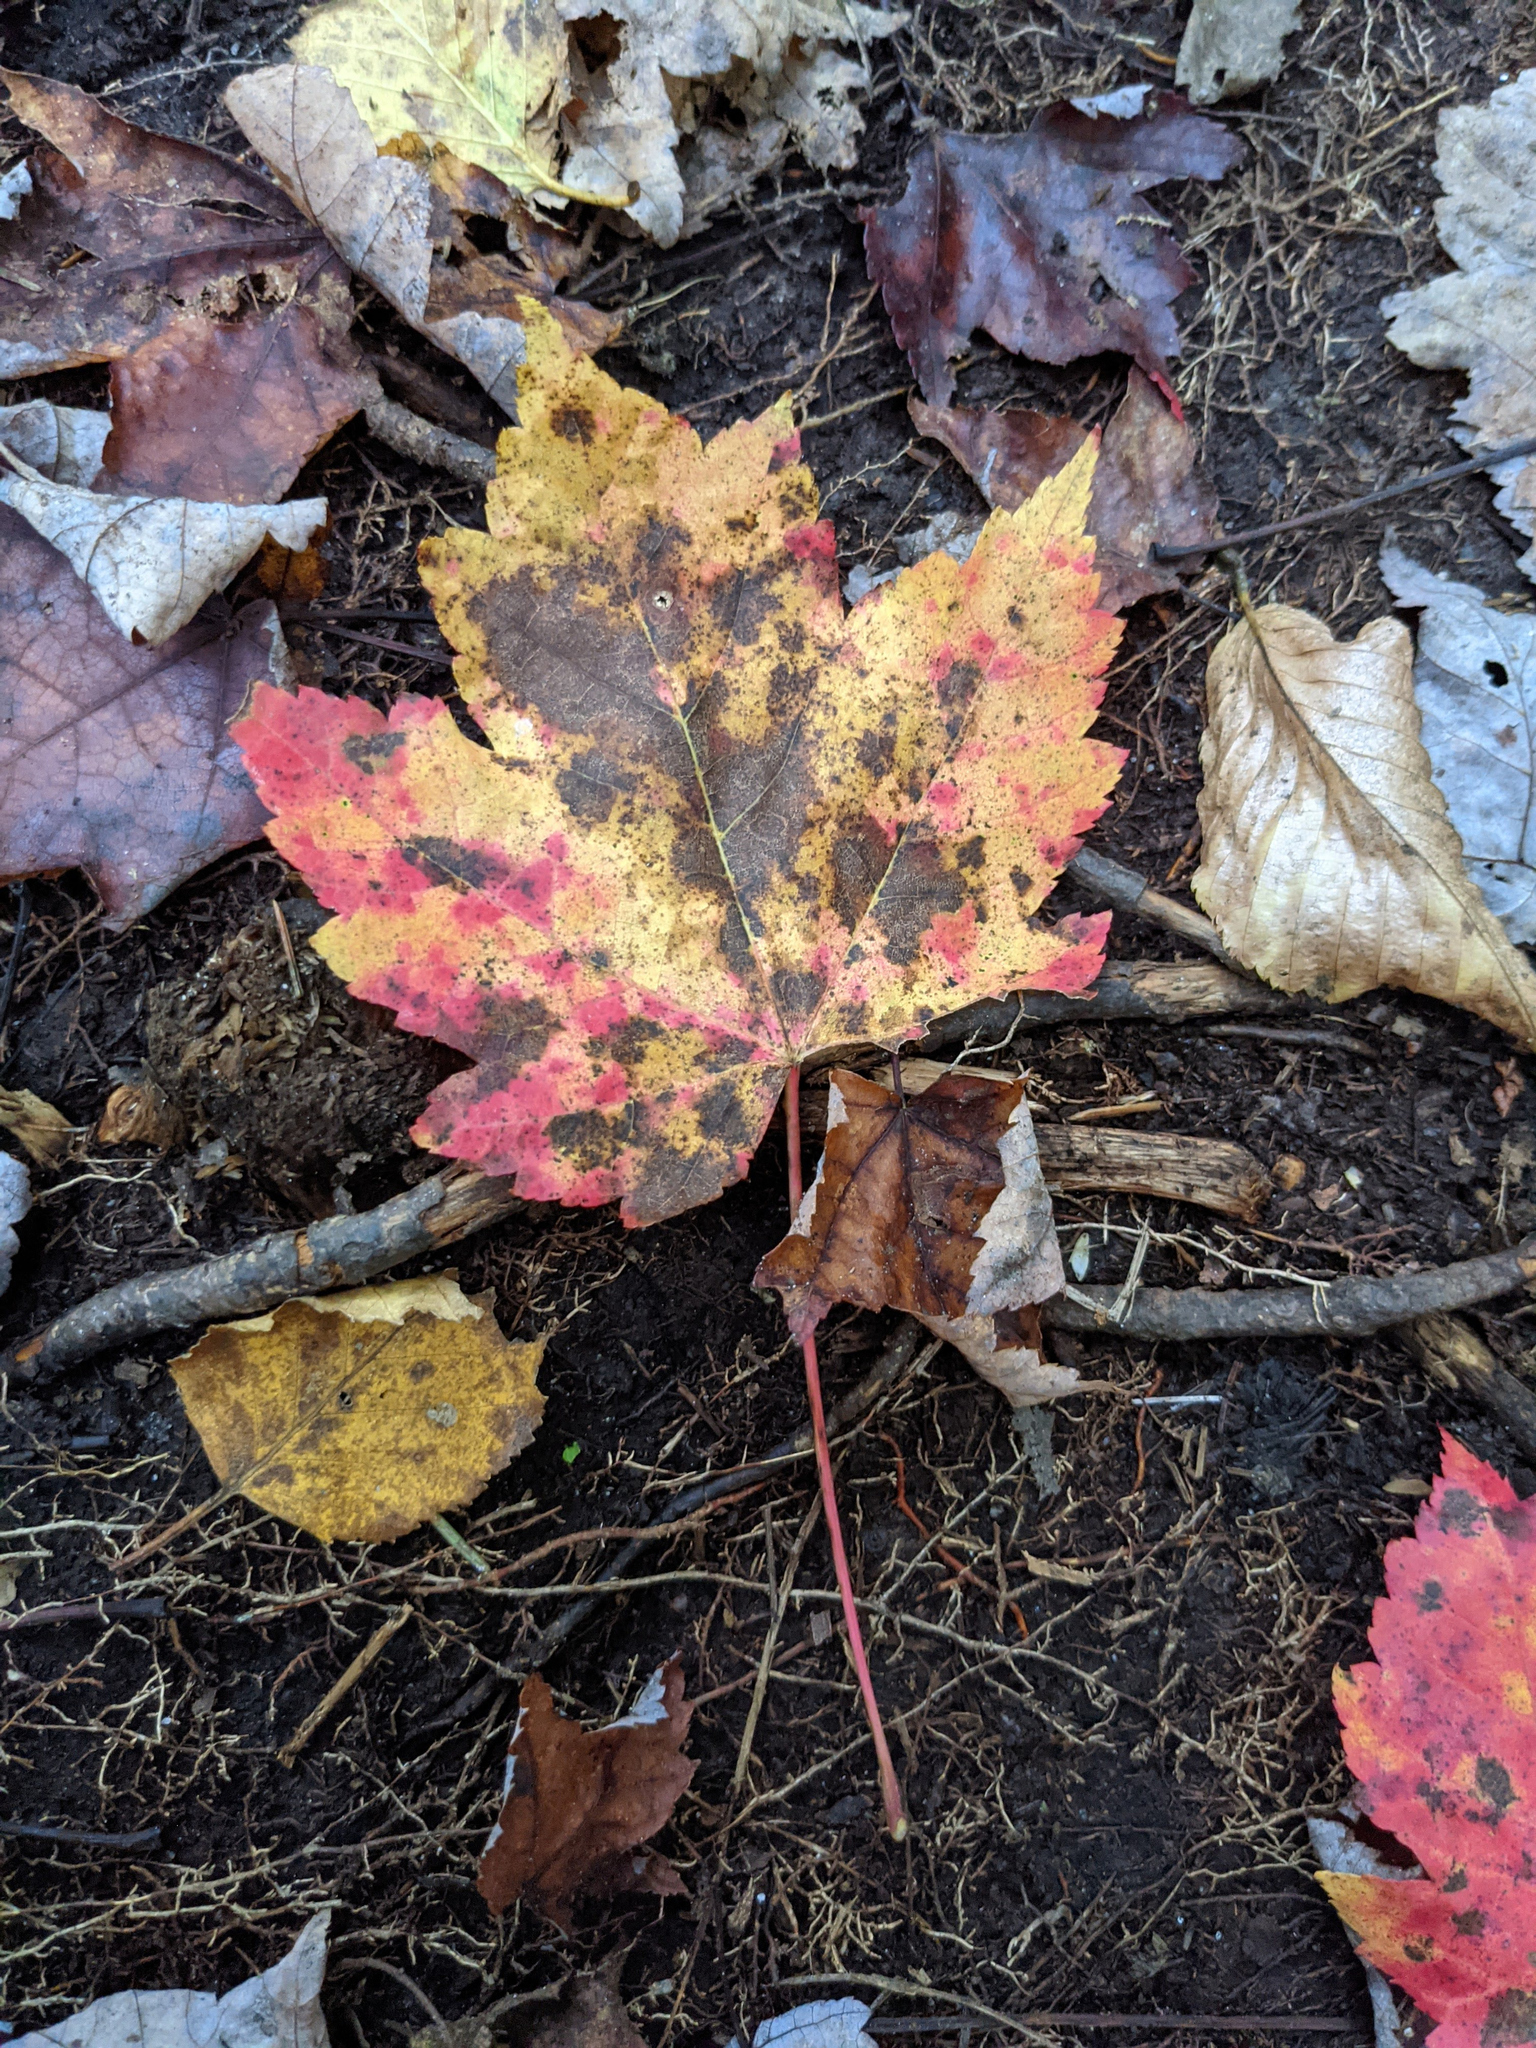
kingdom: Plantae
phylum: Tracheophyta
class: Magnoliopsida
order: Sapindales
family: Sapindaceae
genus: Acer
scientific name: Acer rubrum
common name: Red maple
